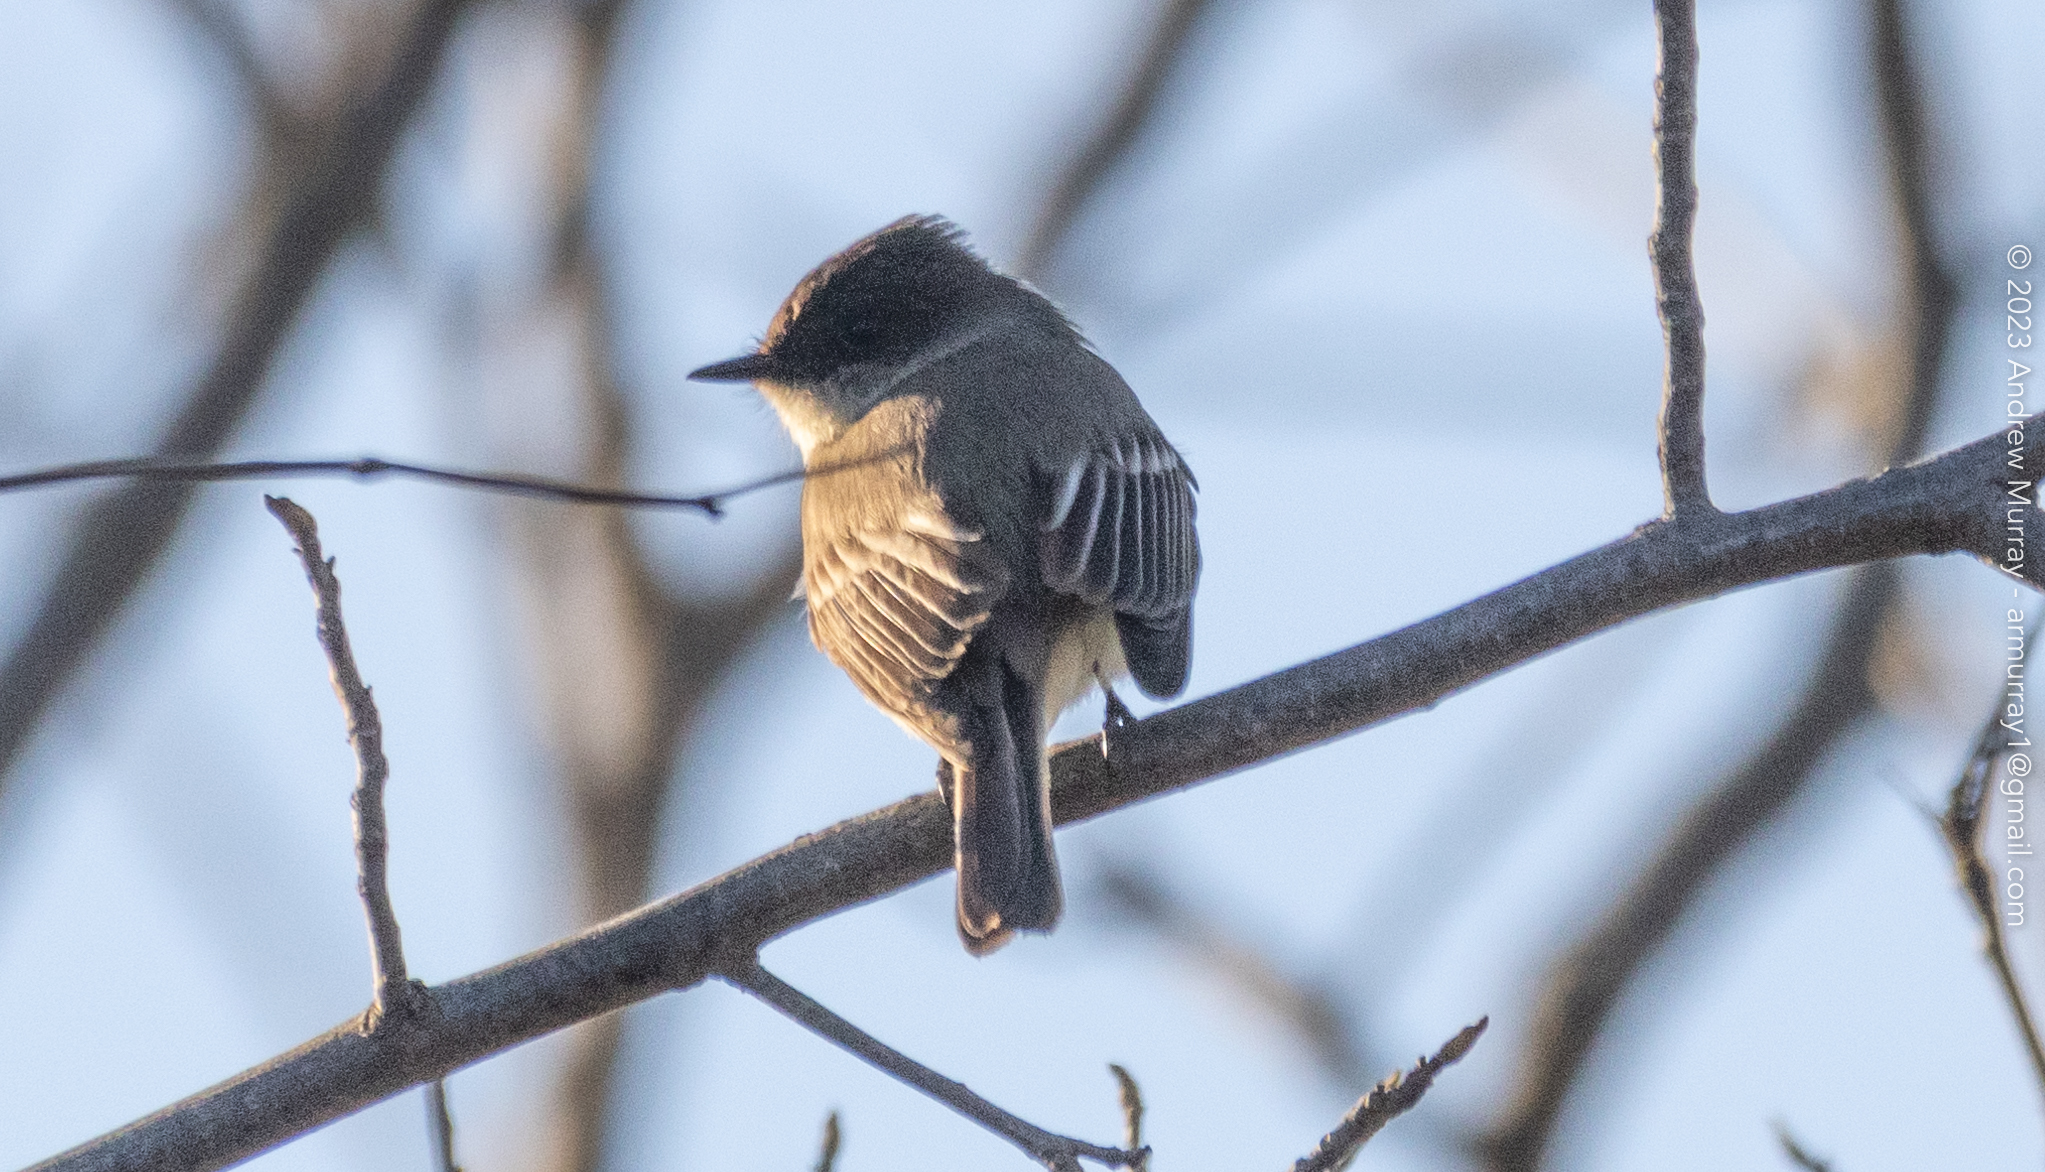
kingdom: Animalia
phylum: Chordata
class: Aves
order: Passeriformes
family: Tyrannidae
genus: Sayornis
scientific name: Sayornis phoebe
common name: Eastern phoebe
